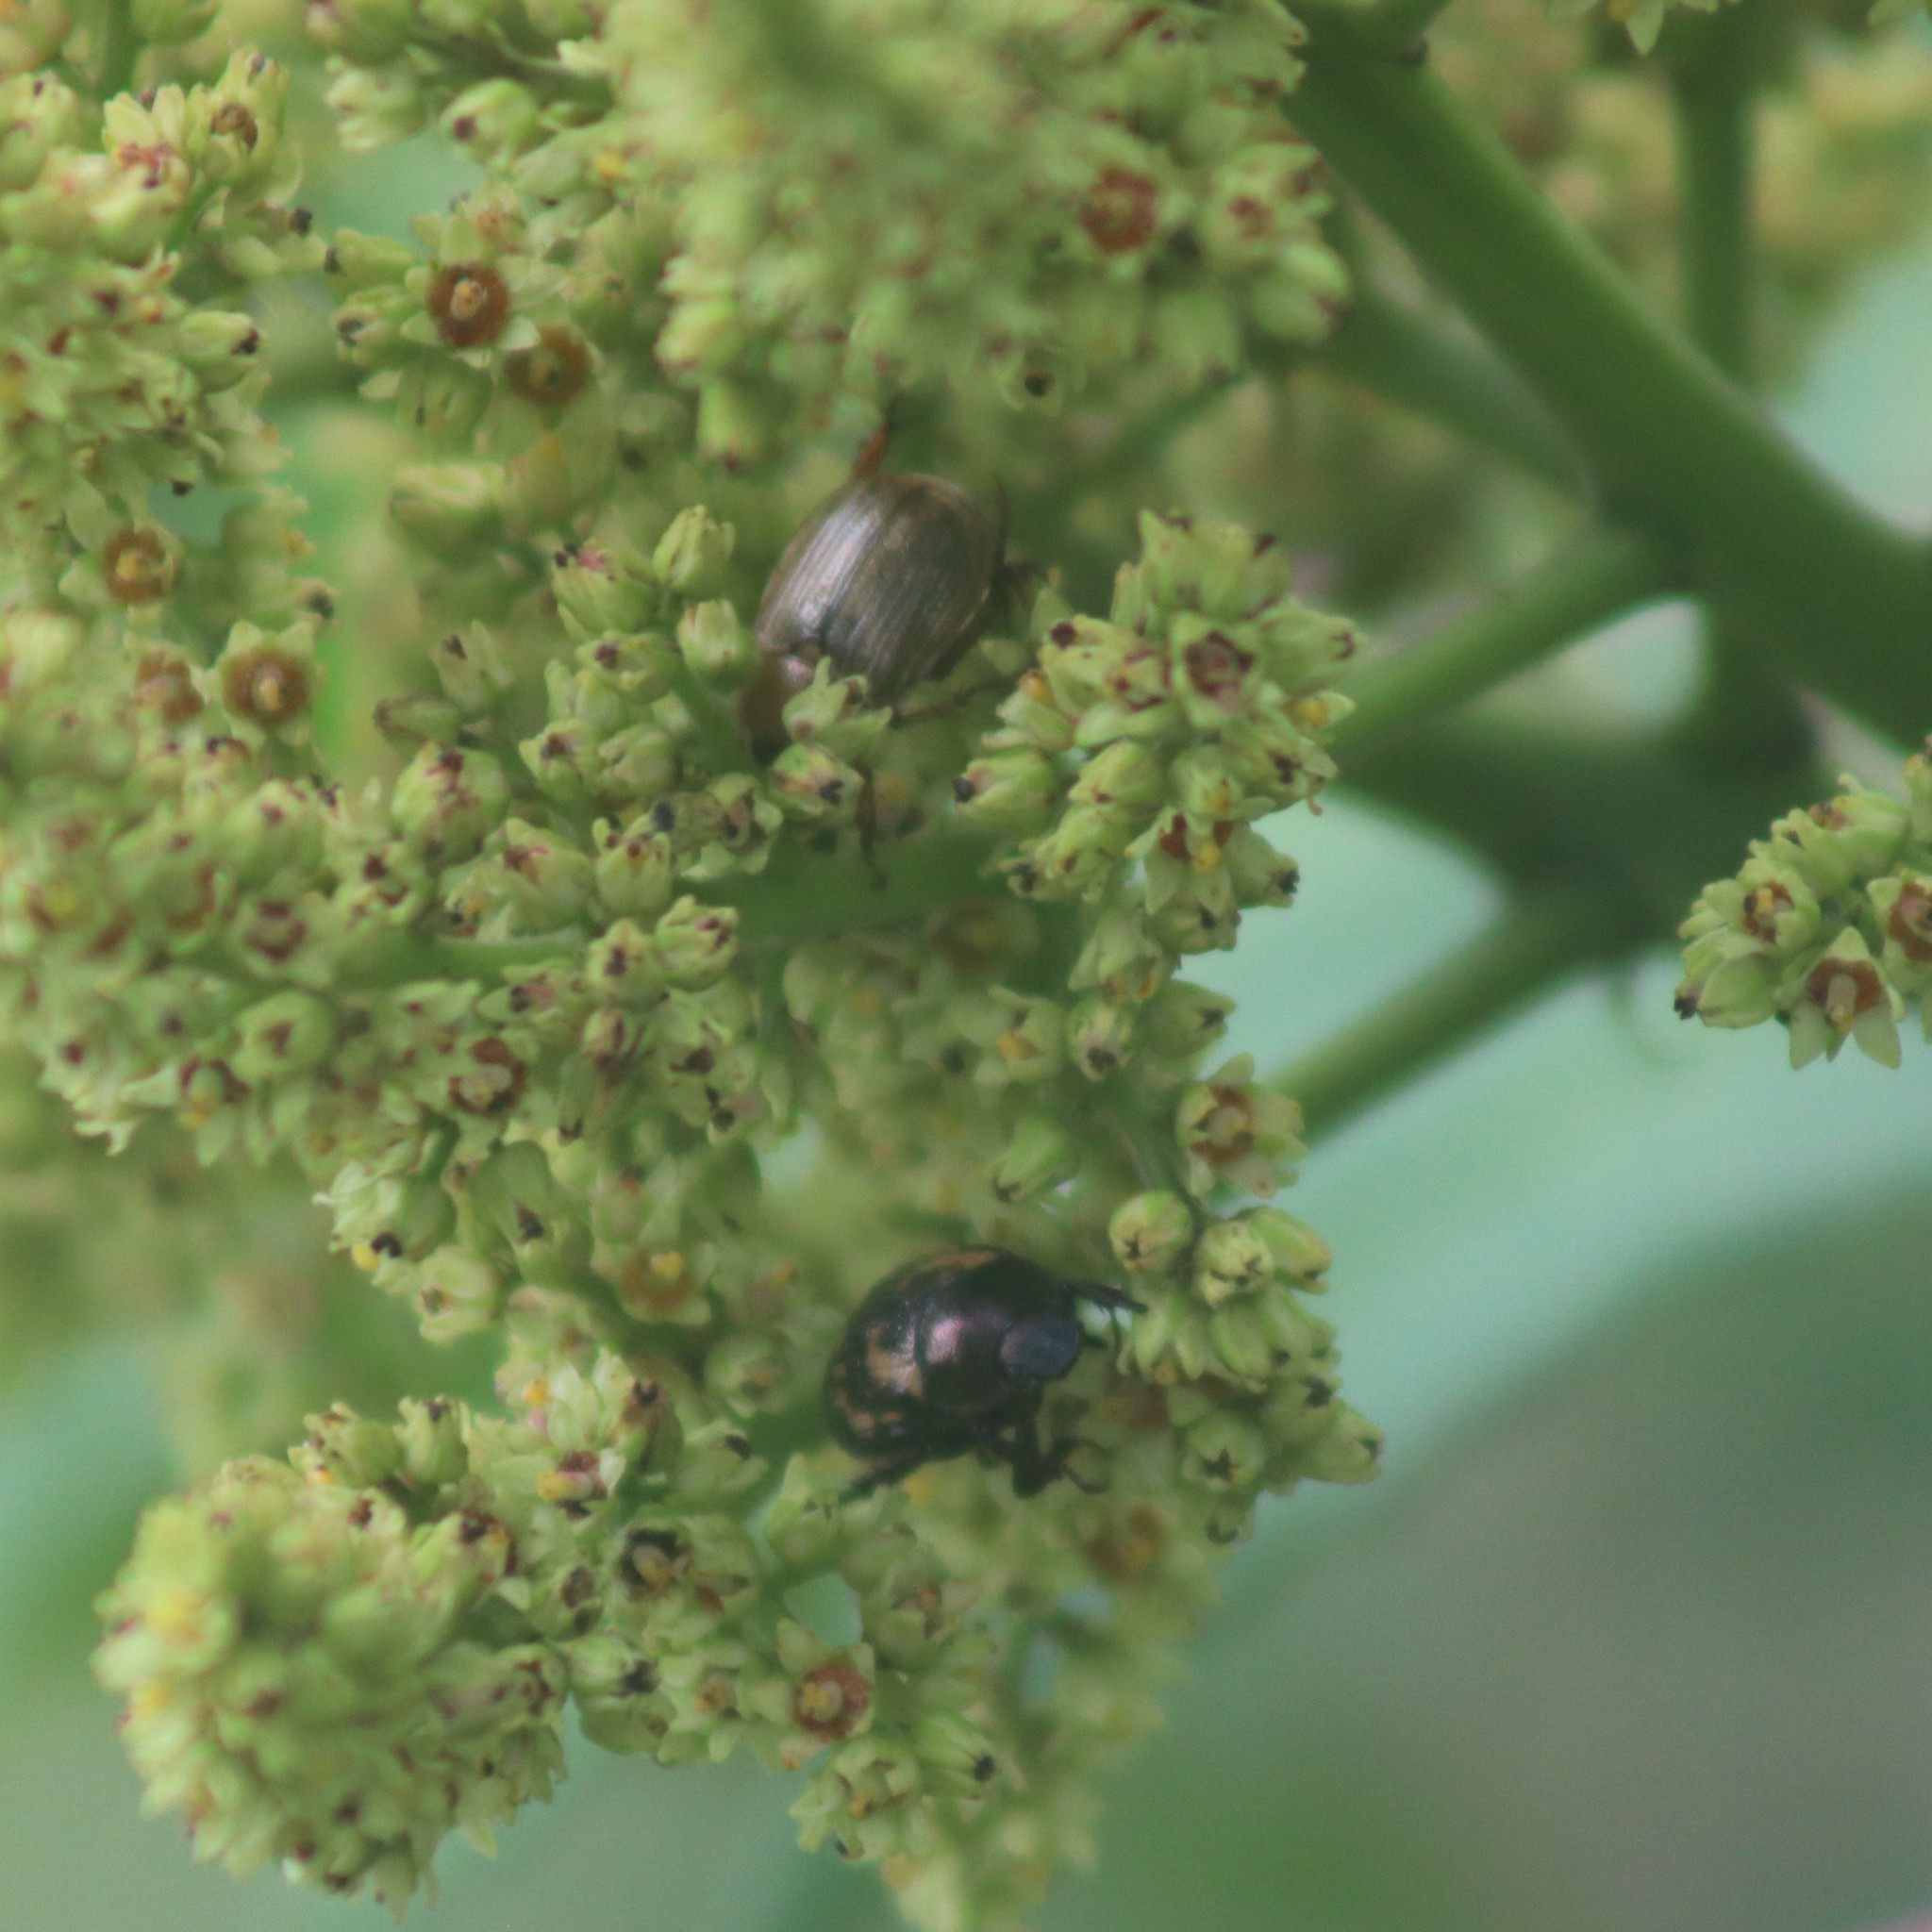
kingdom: Animalia
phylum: Arthropoda
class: Insecta
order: Coleoptera
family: Scarabaeidae
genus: Exomala
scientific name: Exomala orientalis
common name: Oriental beetle
